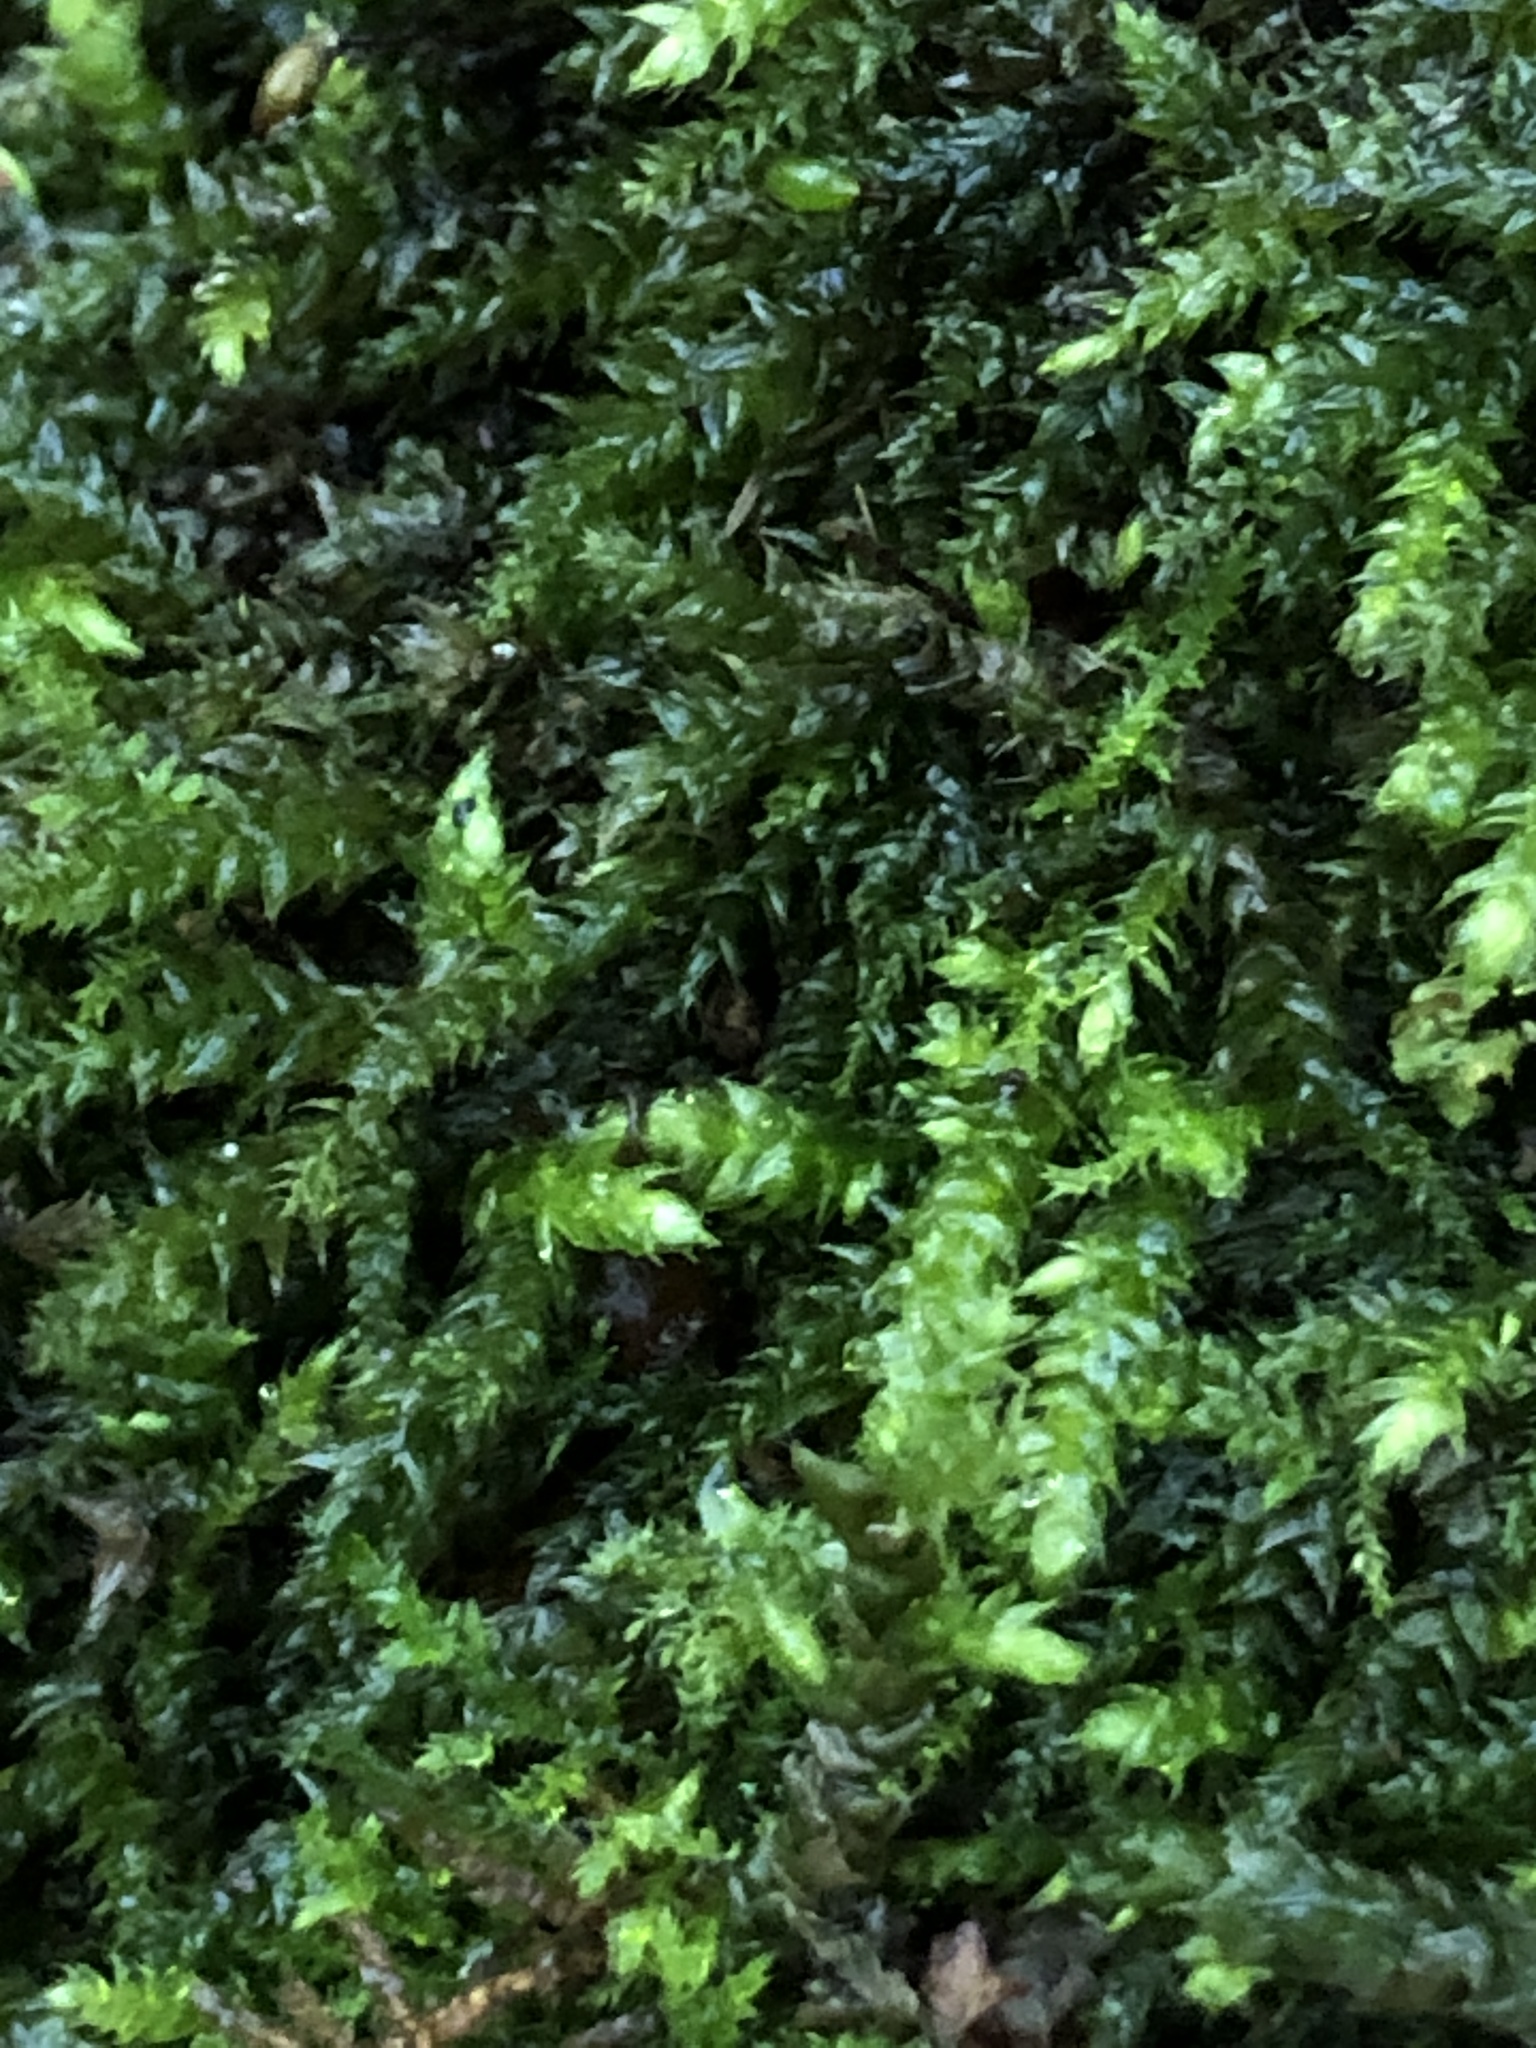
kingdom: Plantae
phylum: Bryophyta
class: Bryopsida
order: Hypnales
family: Brachytheciaceae
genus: Brachythecium
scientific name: Brachythecium rutabulum
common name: Rough-stalked feather-moss
